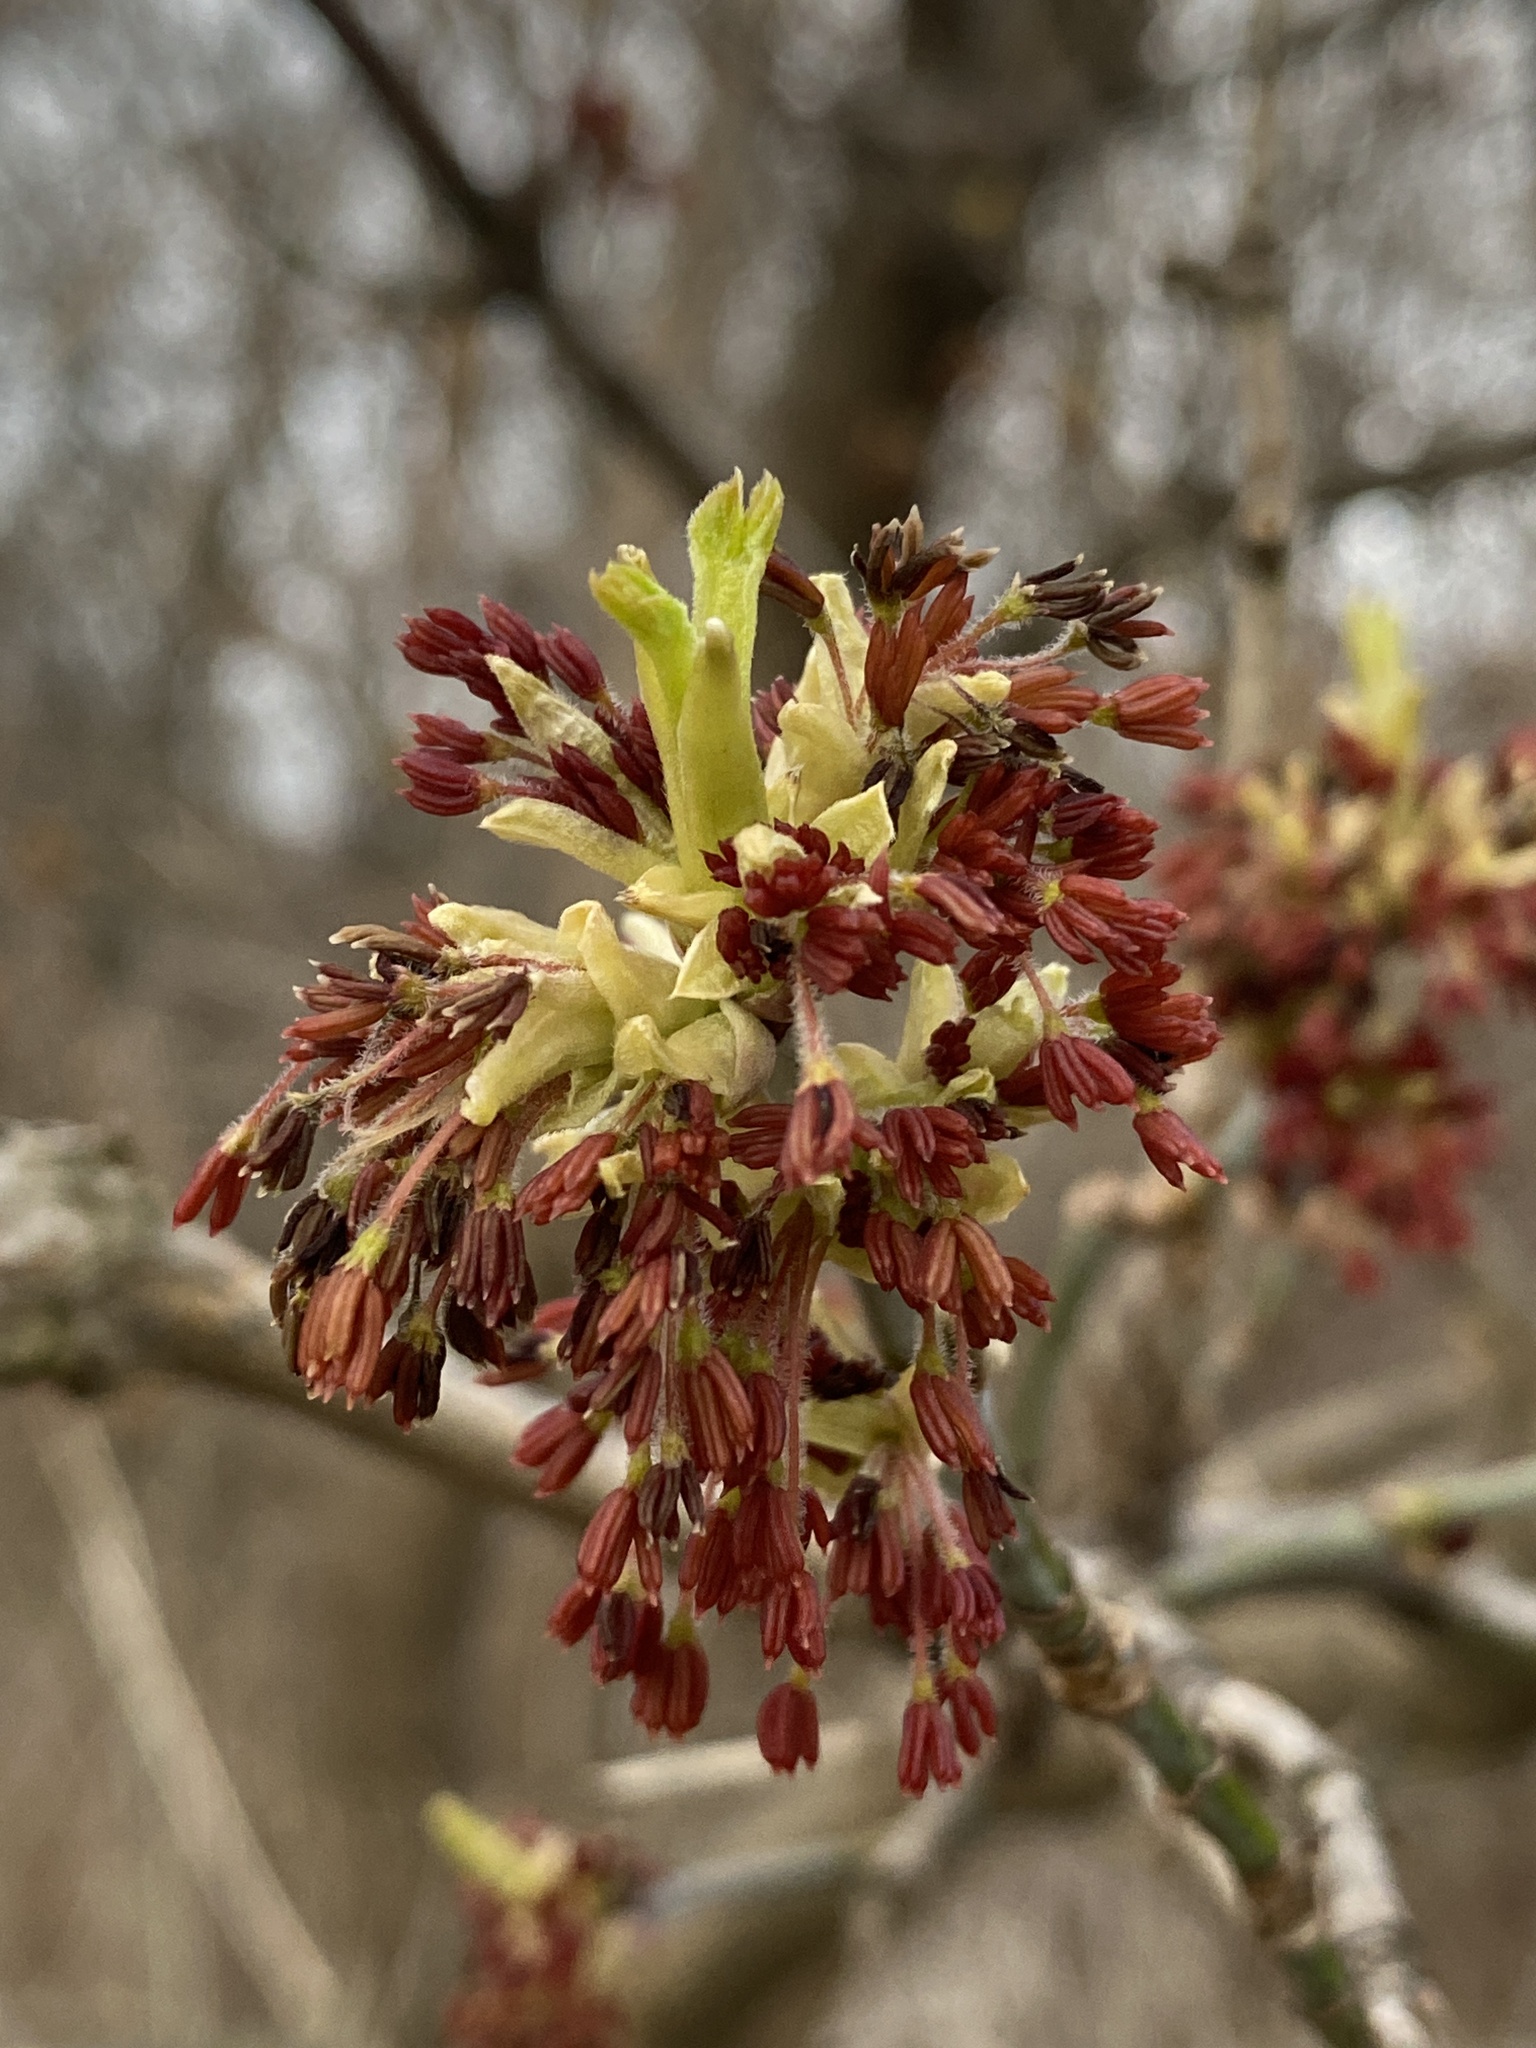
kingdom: Plantae
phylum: Tracheophyta
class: Magnoliopsida
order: Sapindales
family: Sapindaceae
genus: Acer
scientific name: Acer negundo
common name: Ashleaf maple
